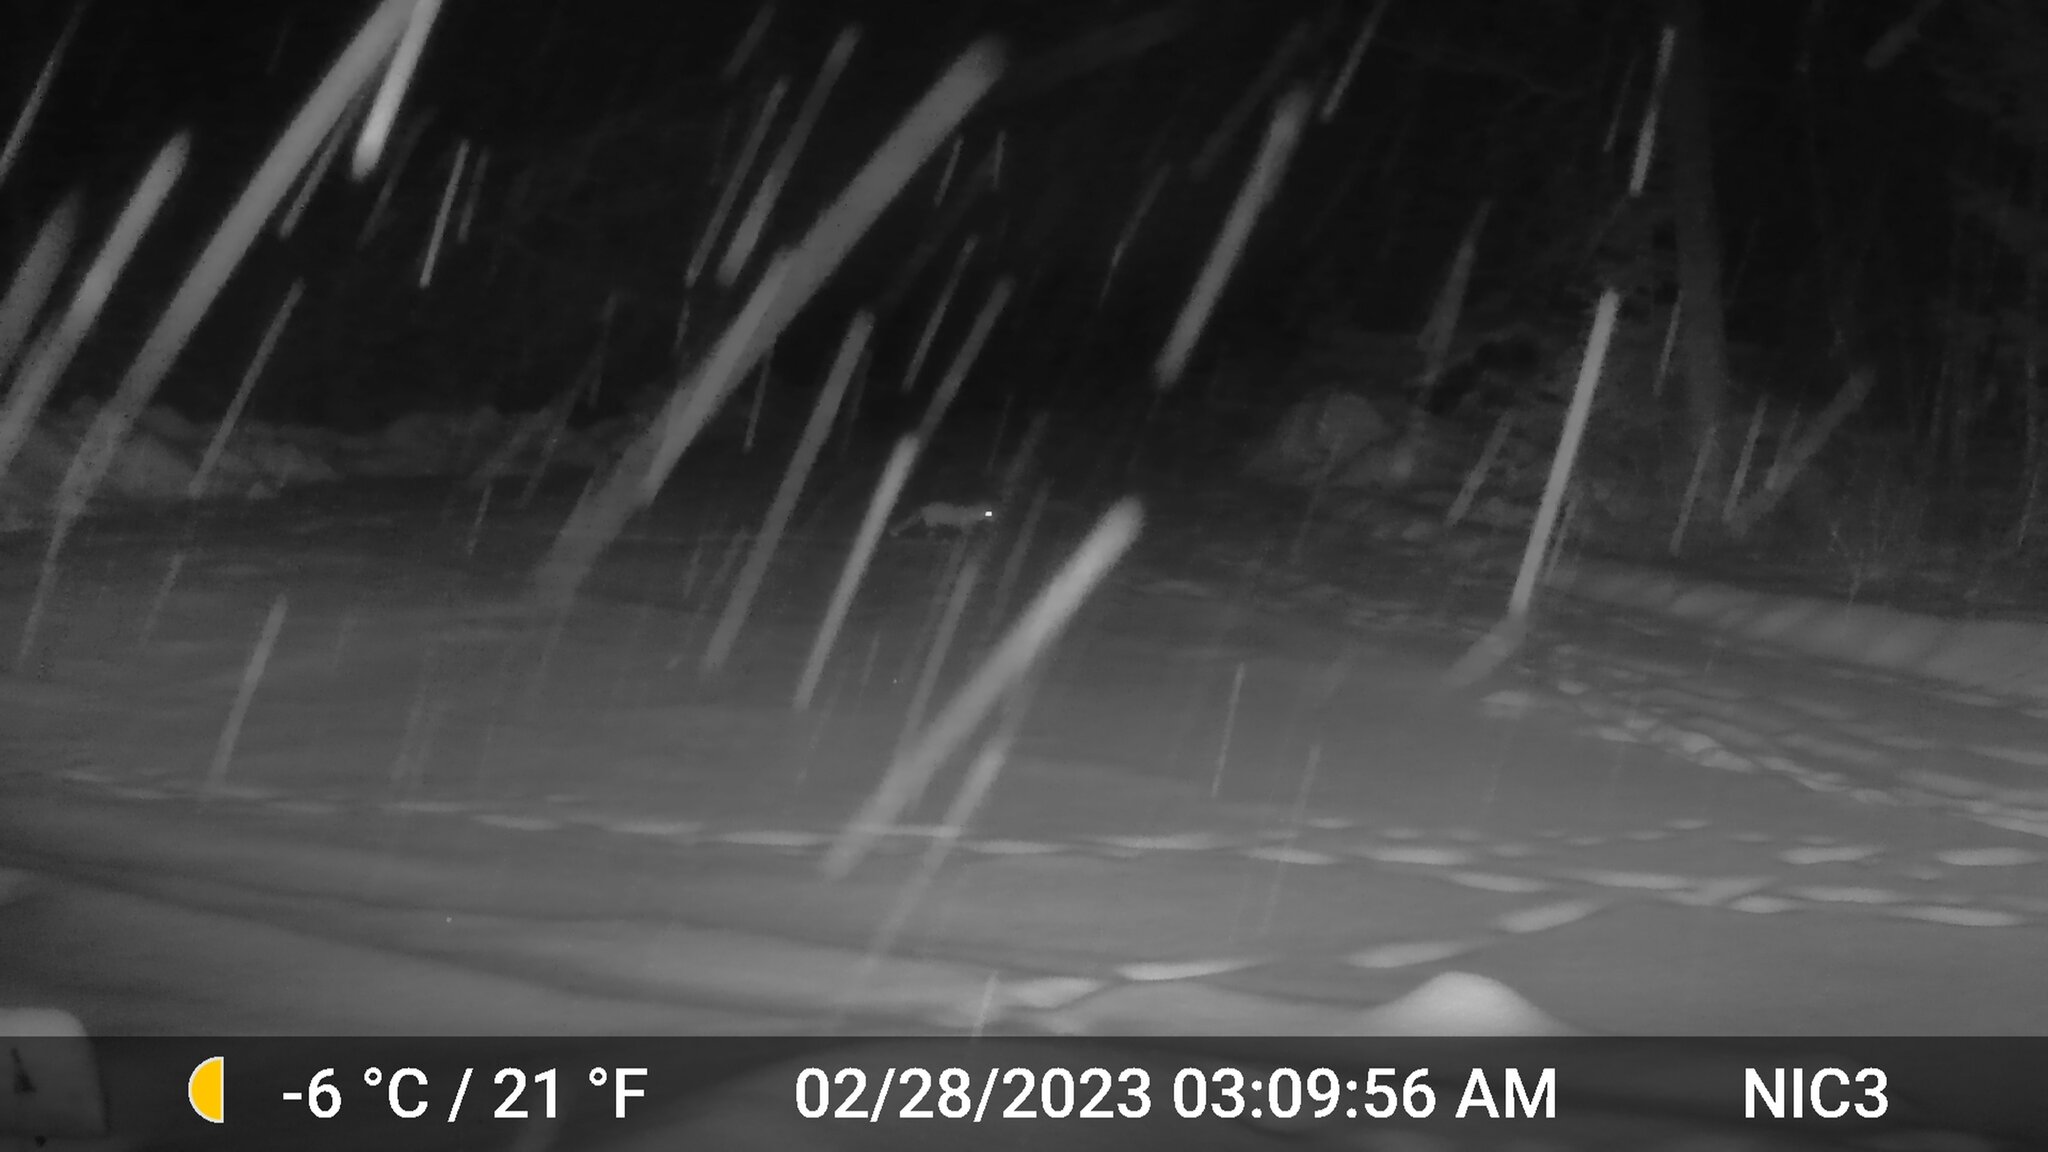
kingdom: Animalia
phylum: Chordata
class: Mammalia
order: Carnivora
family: Canidae
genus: Vulpes
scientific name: Vulpes vulpes
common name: Red fox
